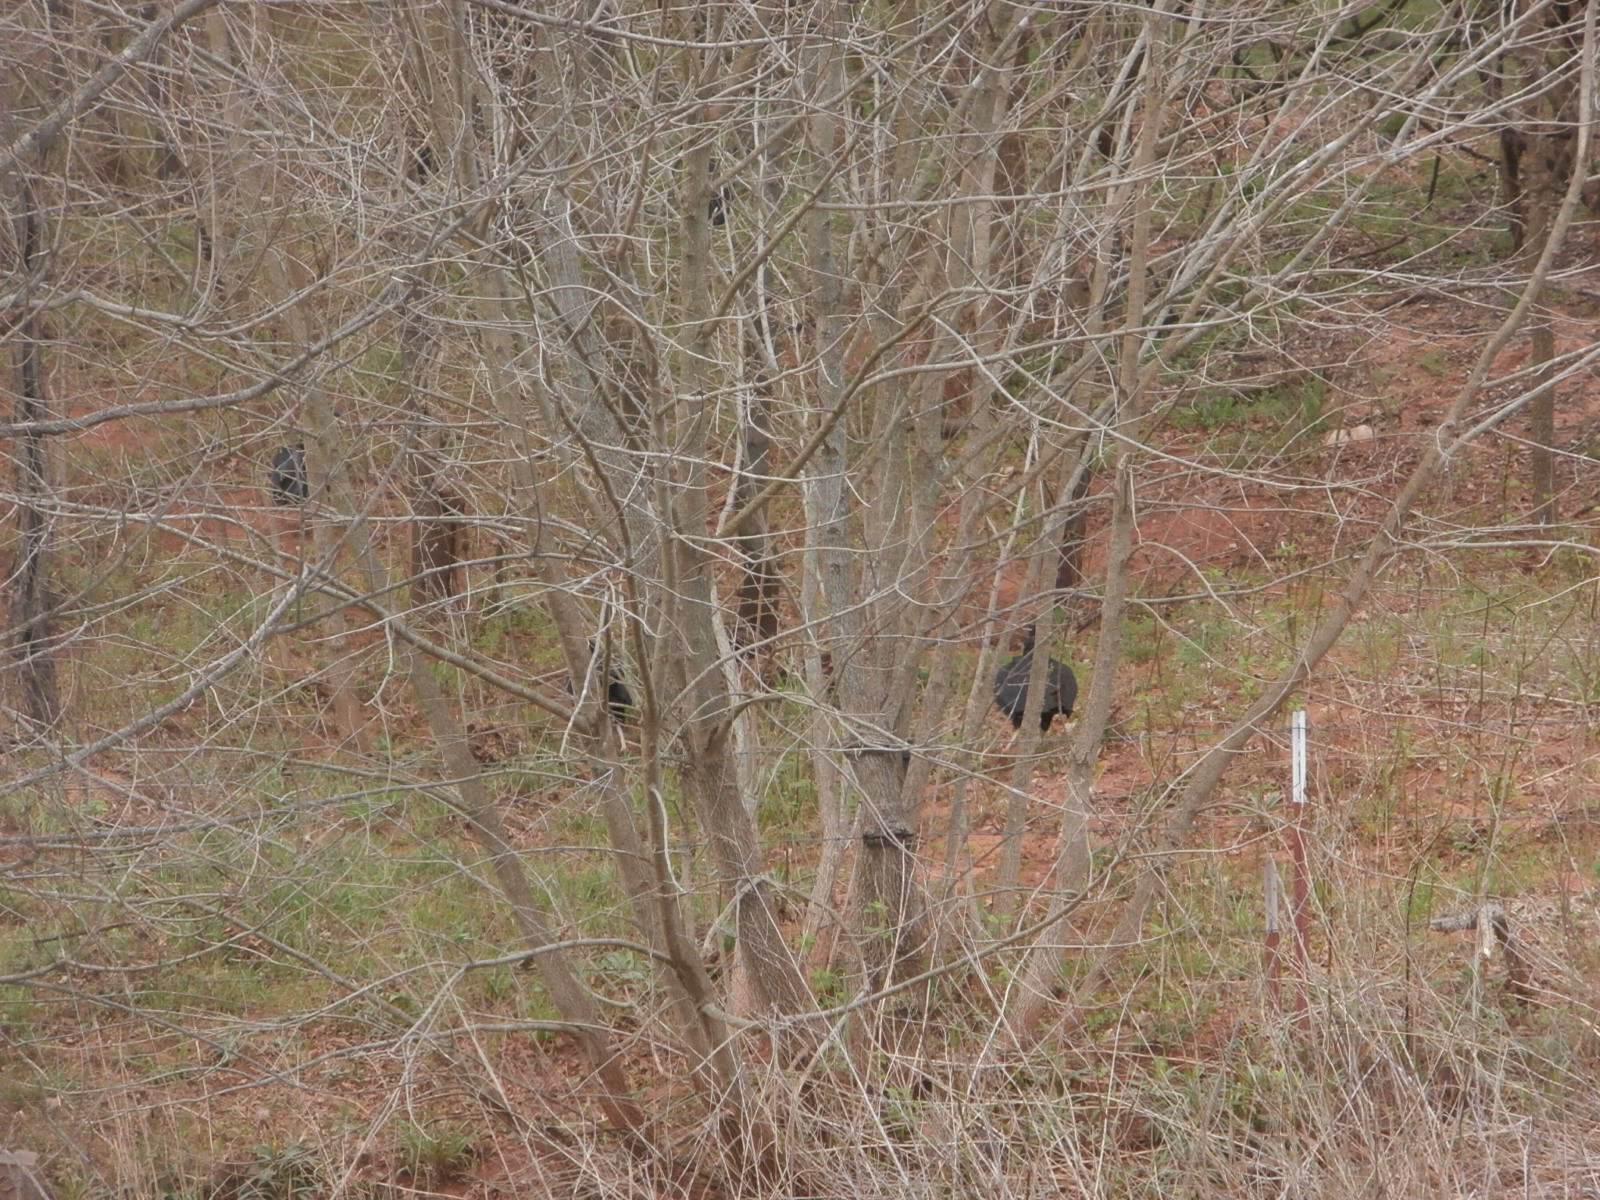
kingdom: Animalia
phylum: Chordata
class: Aves
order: Accipitriformes
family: Cathartidae
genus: Coragyps
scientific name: Coragyps atratus
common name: Black vulture
